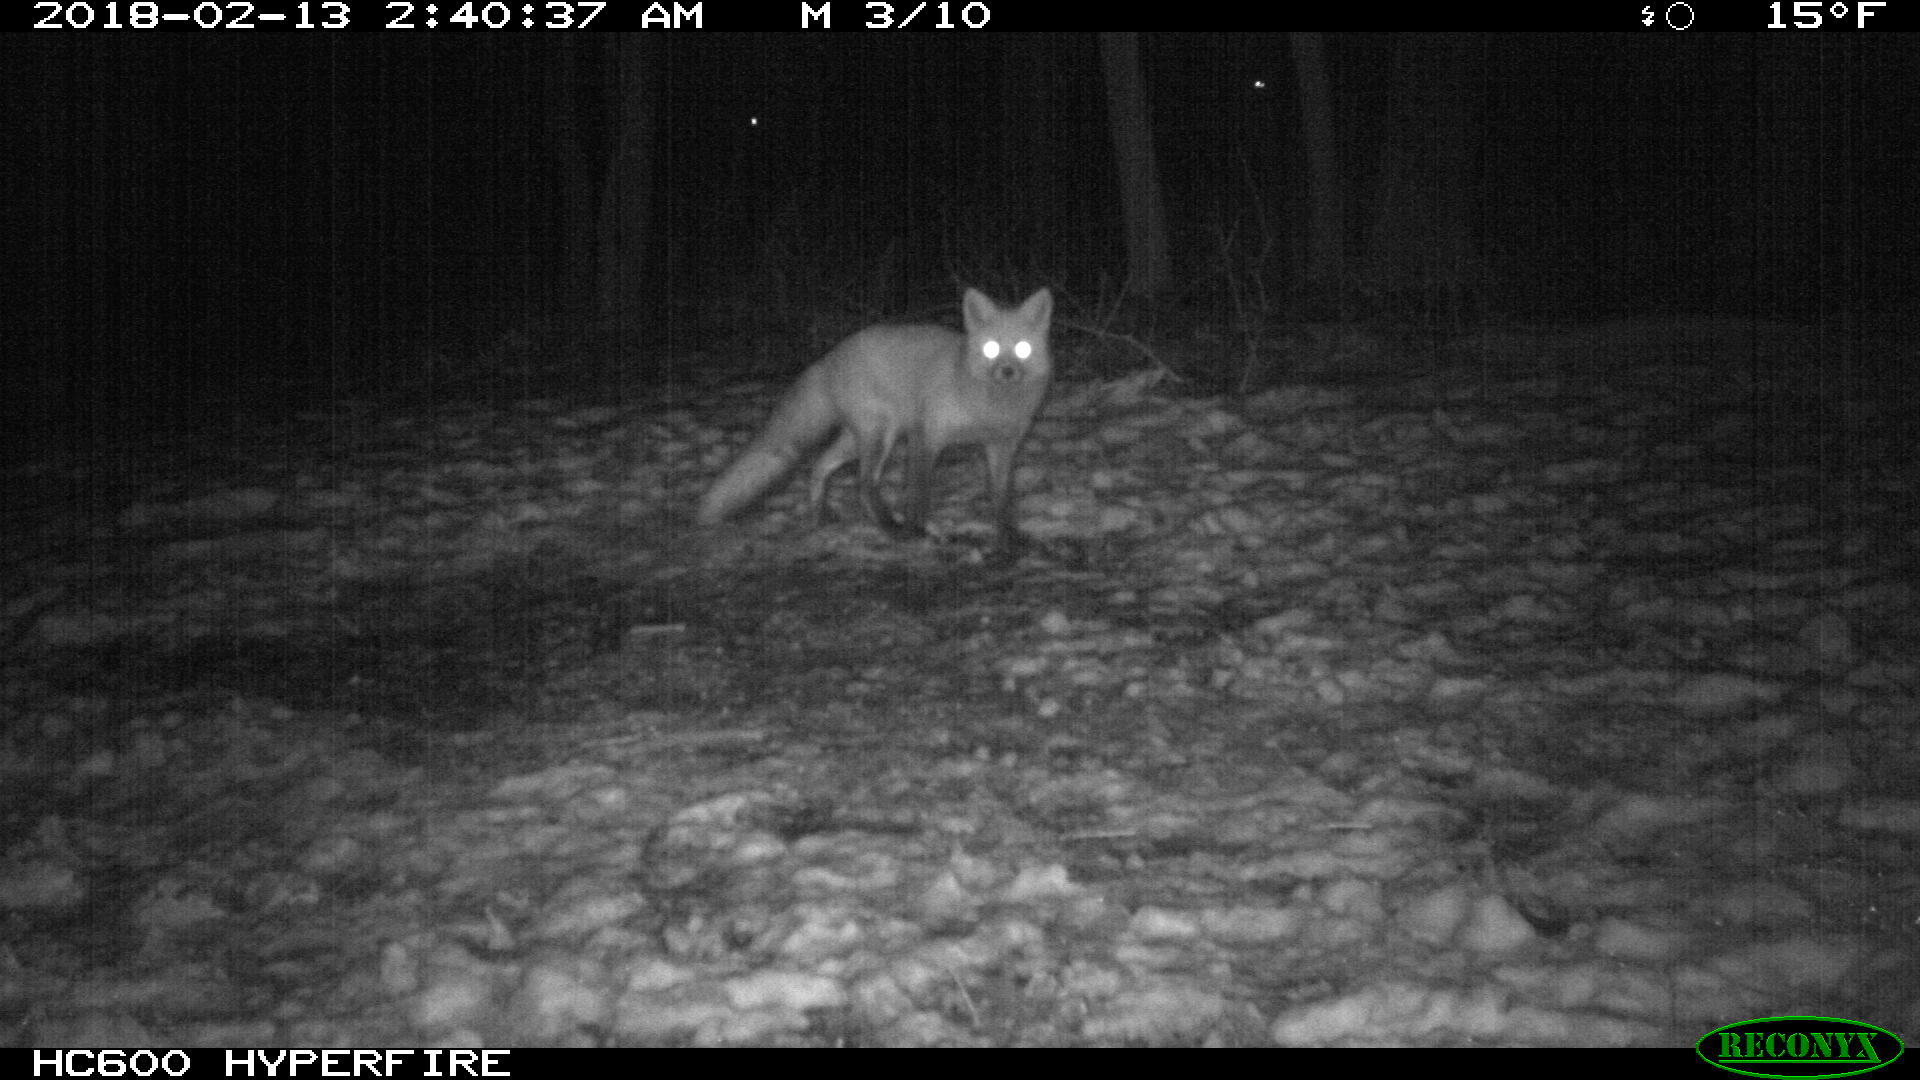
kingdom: Animalia
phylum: Chordata
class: Mammalia
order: Carnivora
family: Canidae
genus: Vulpes
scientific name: Vulpes vulpes
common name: Red fox
